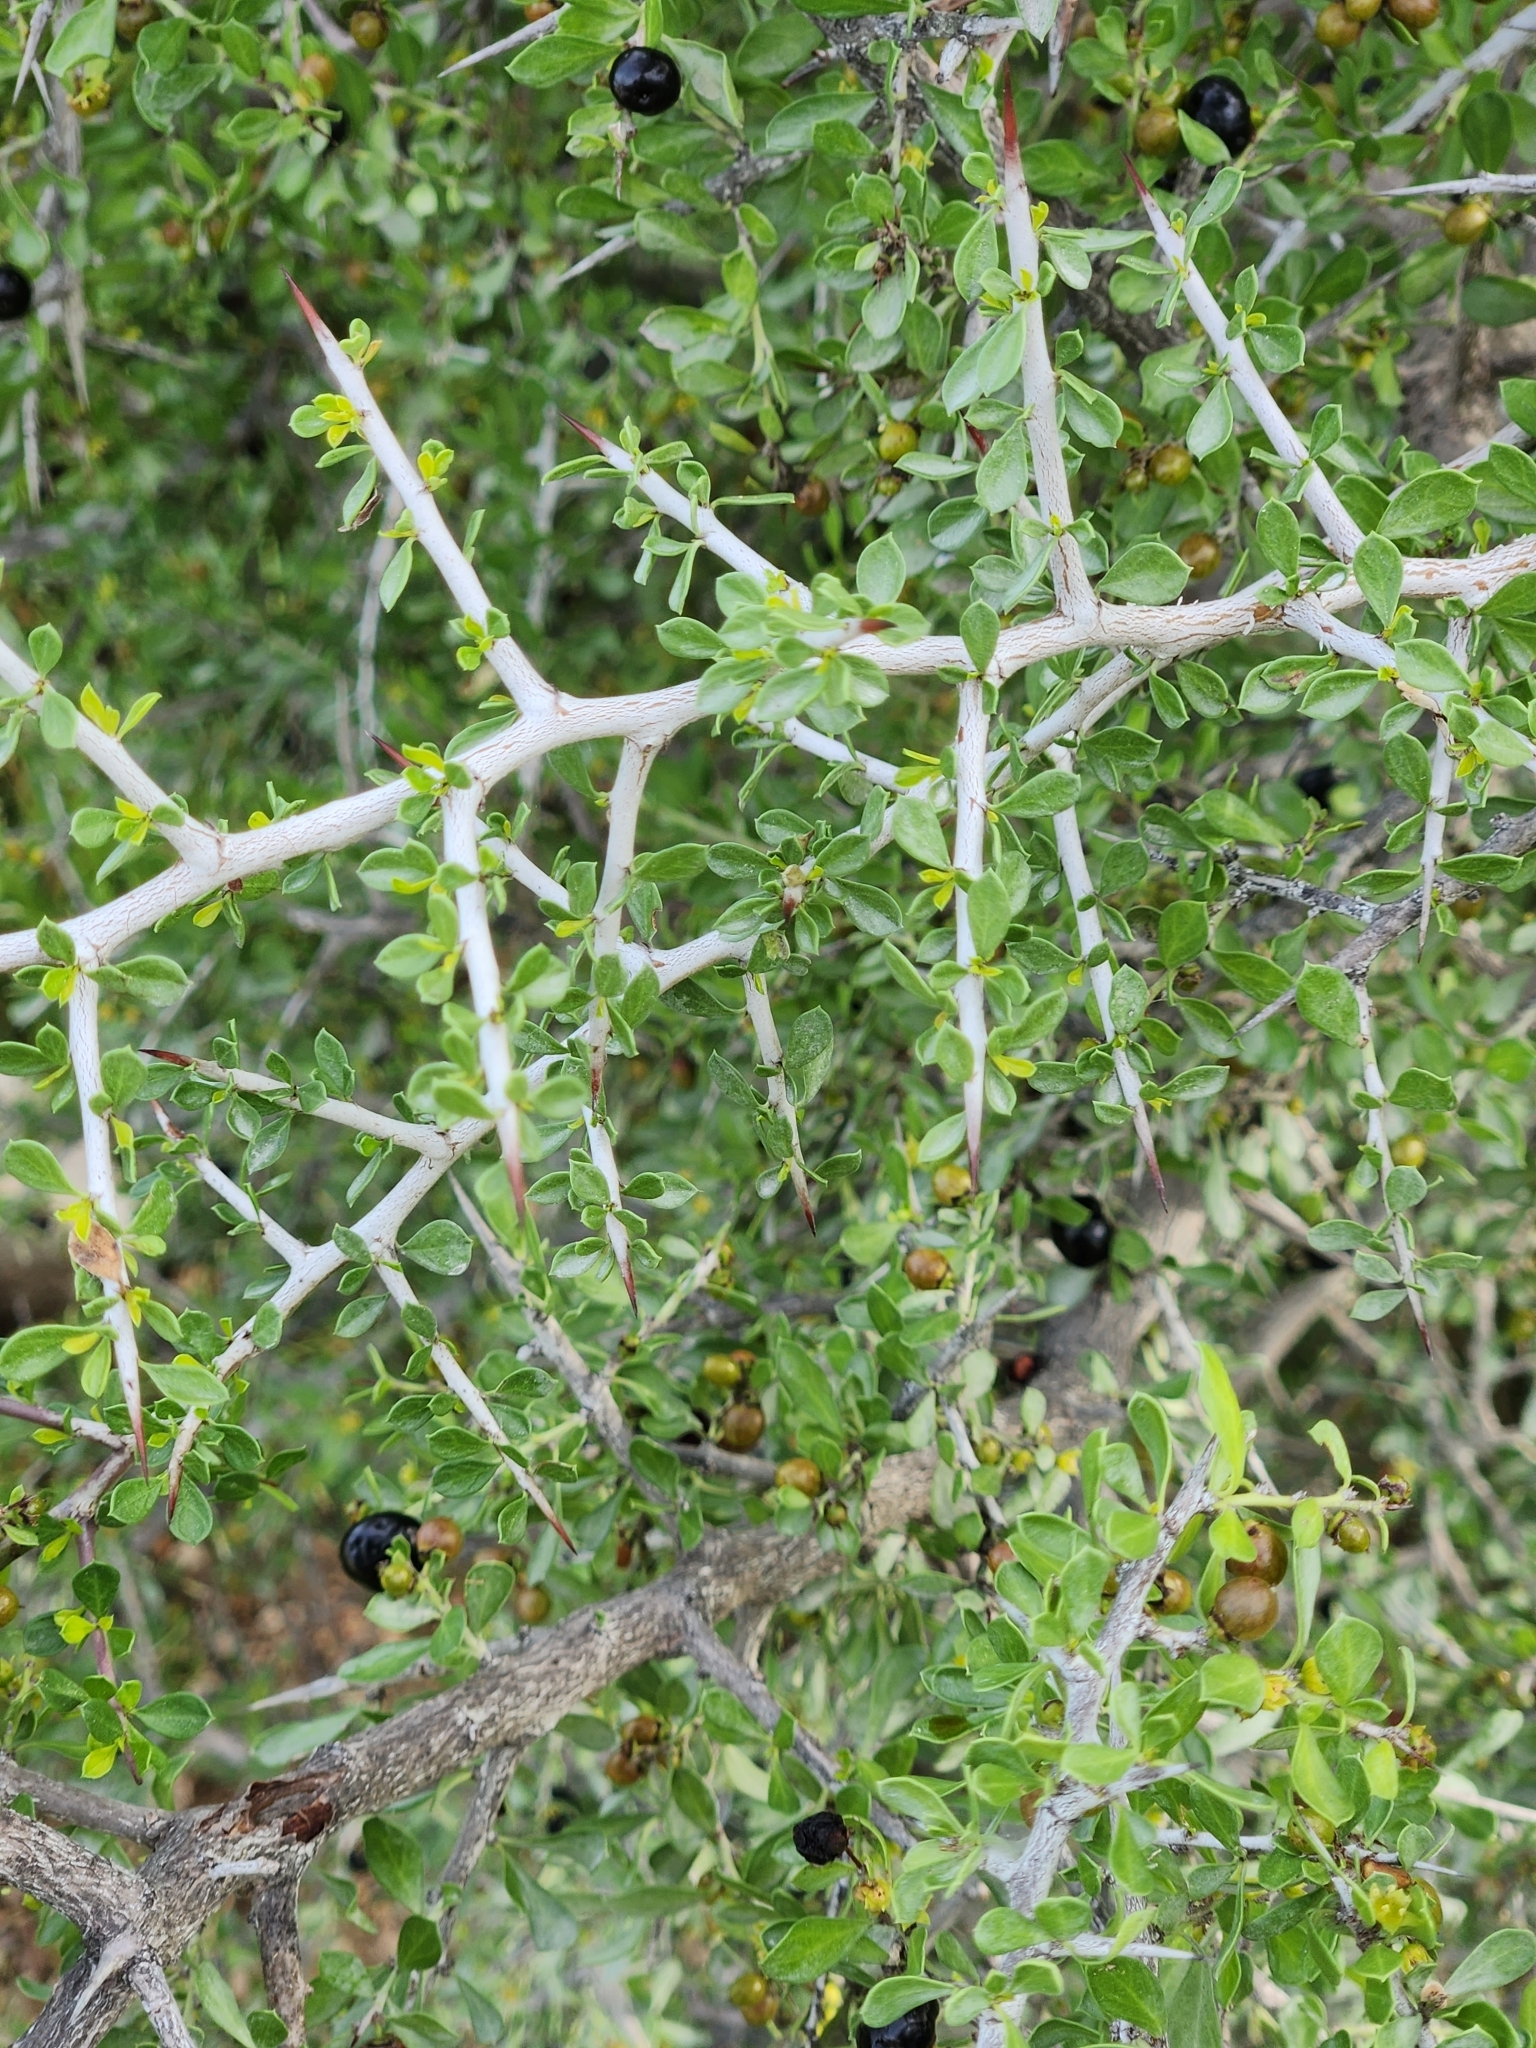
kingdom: Plantae
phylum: Tracheophyta
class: Magnoliopsida
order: Rosales
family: Rhamnaceae
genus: Condalia
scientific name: Condalia viridis
